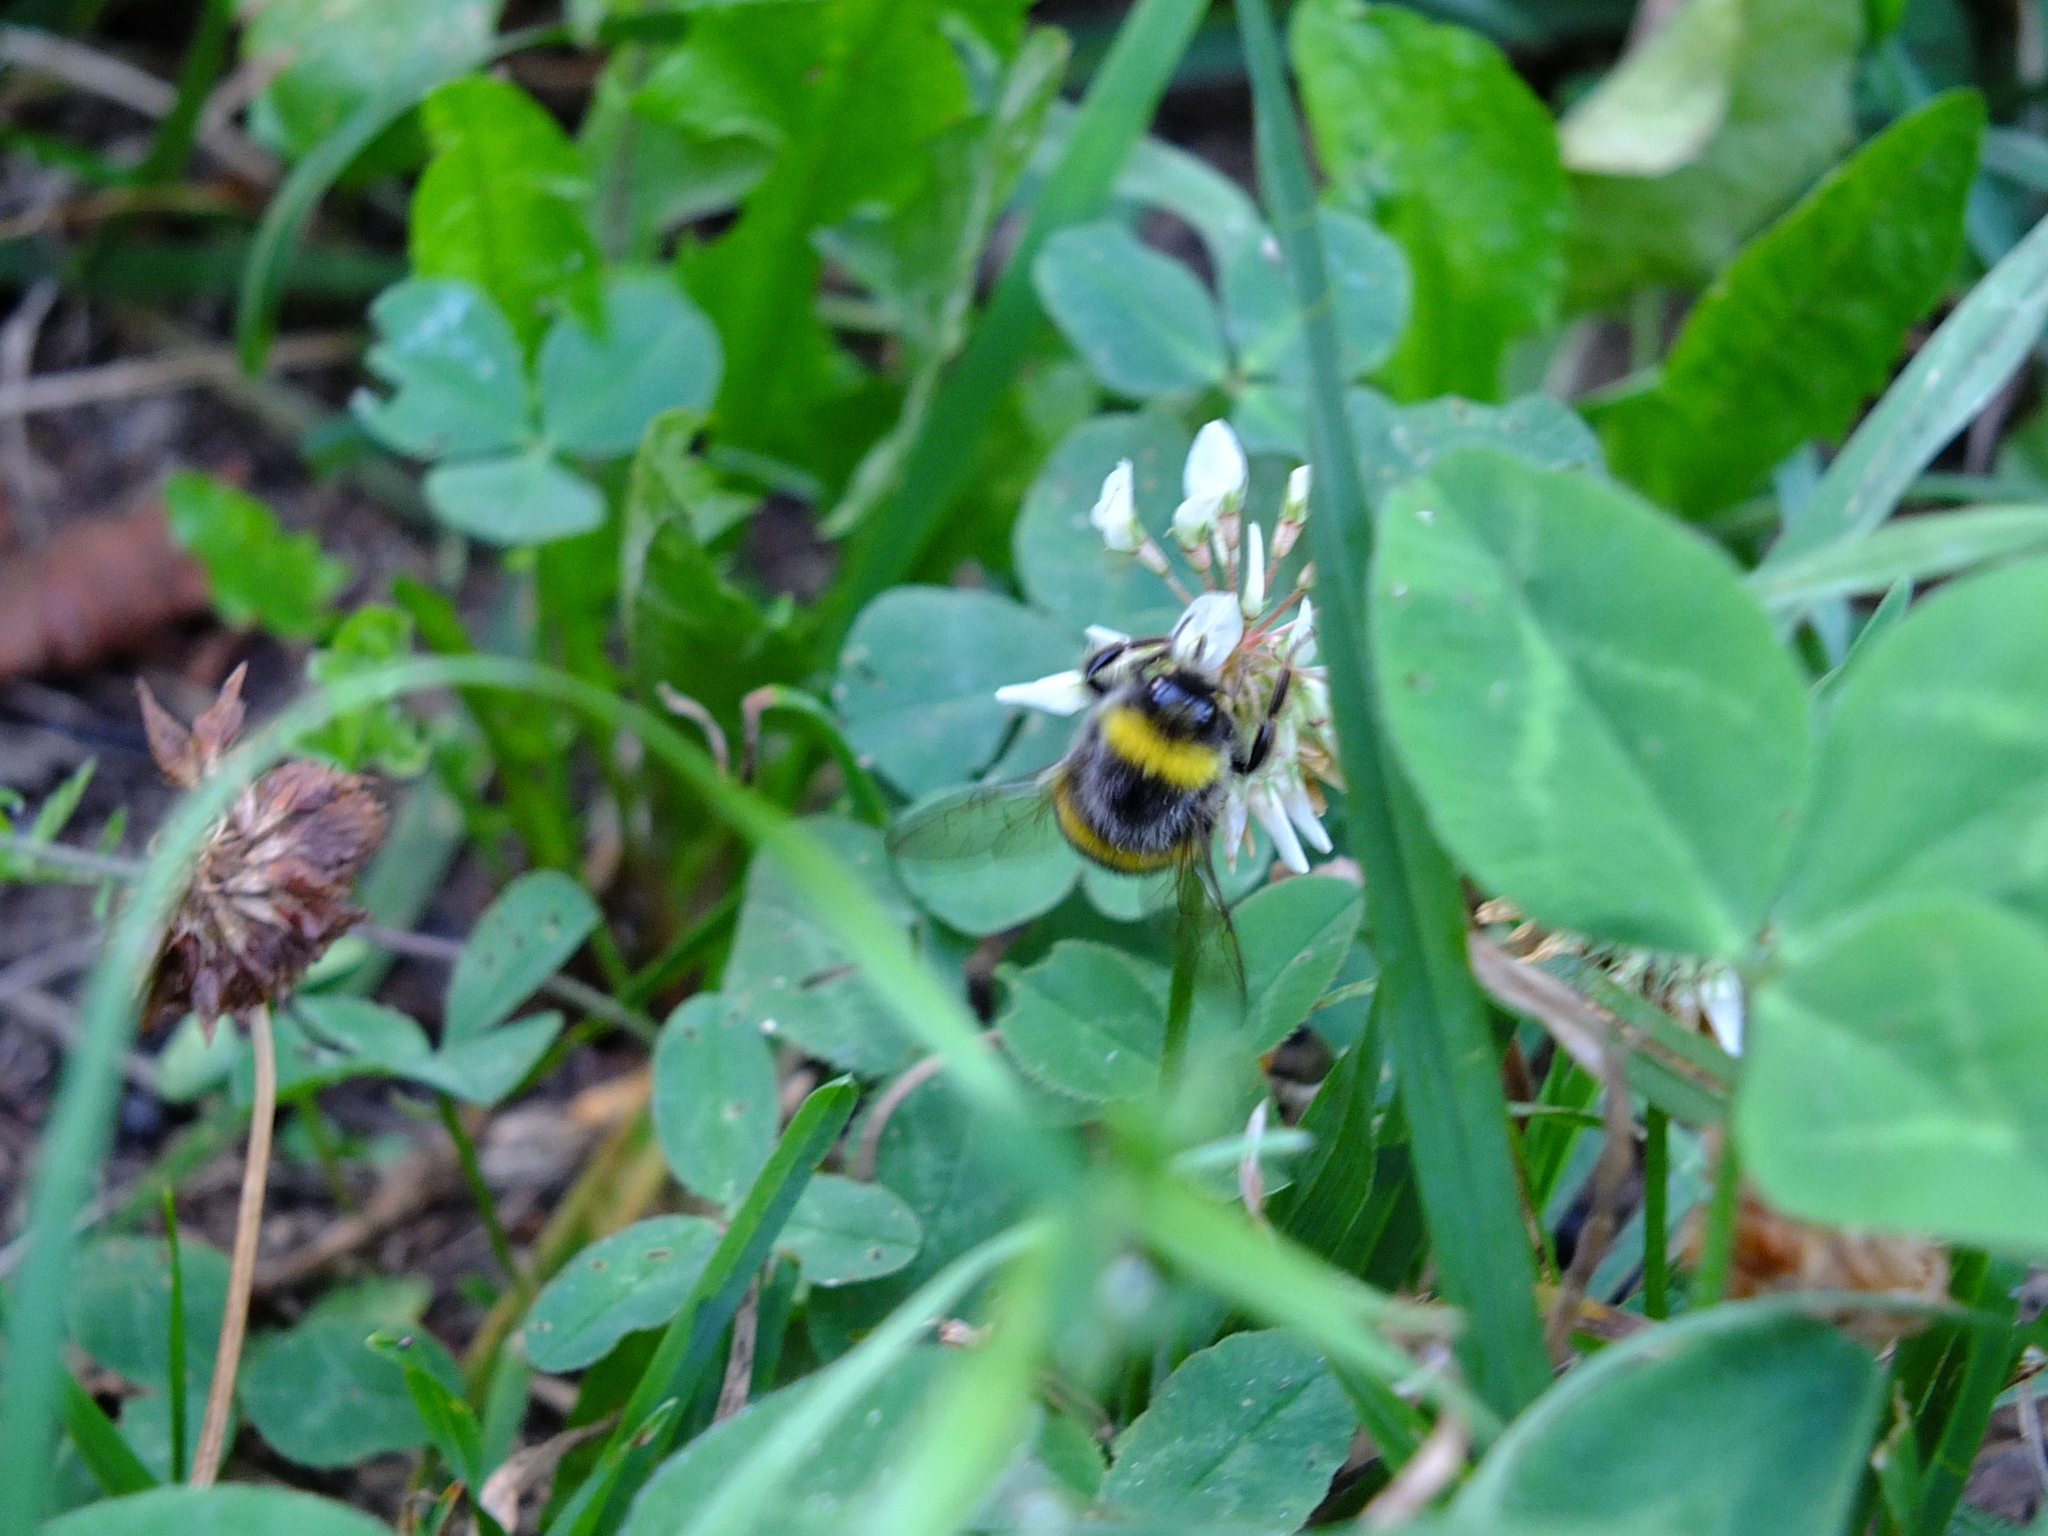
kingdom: Animalia
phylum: Arthropoda
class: Insecta
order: Hymenoptera
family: Apidae
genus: Bombus
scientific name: Bombus
